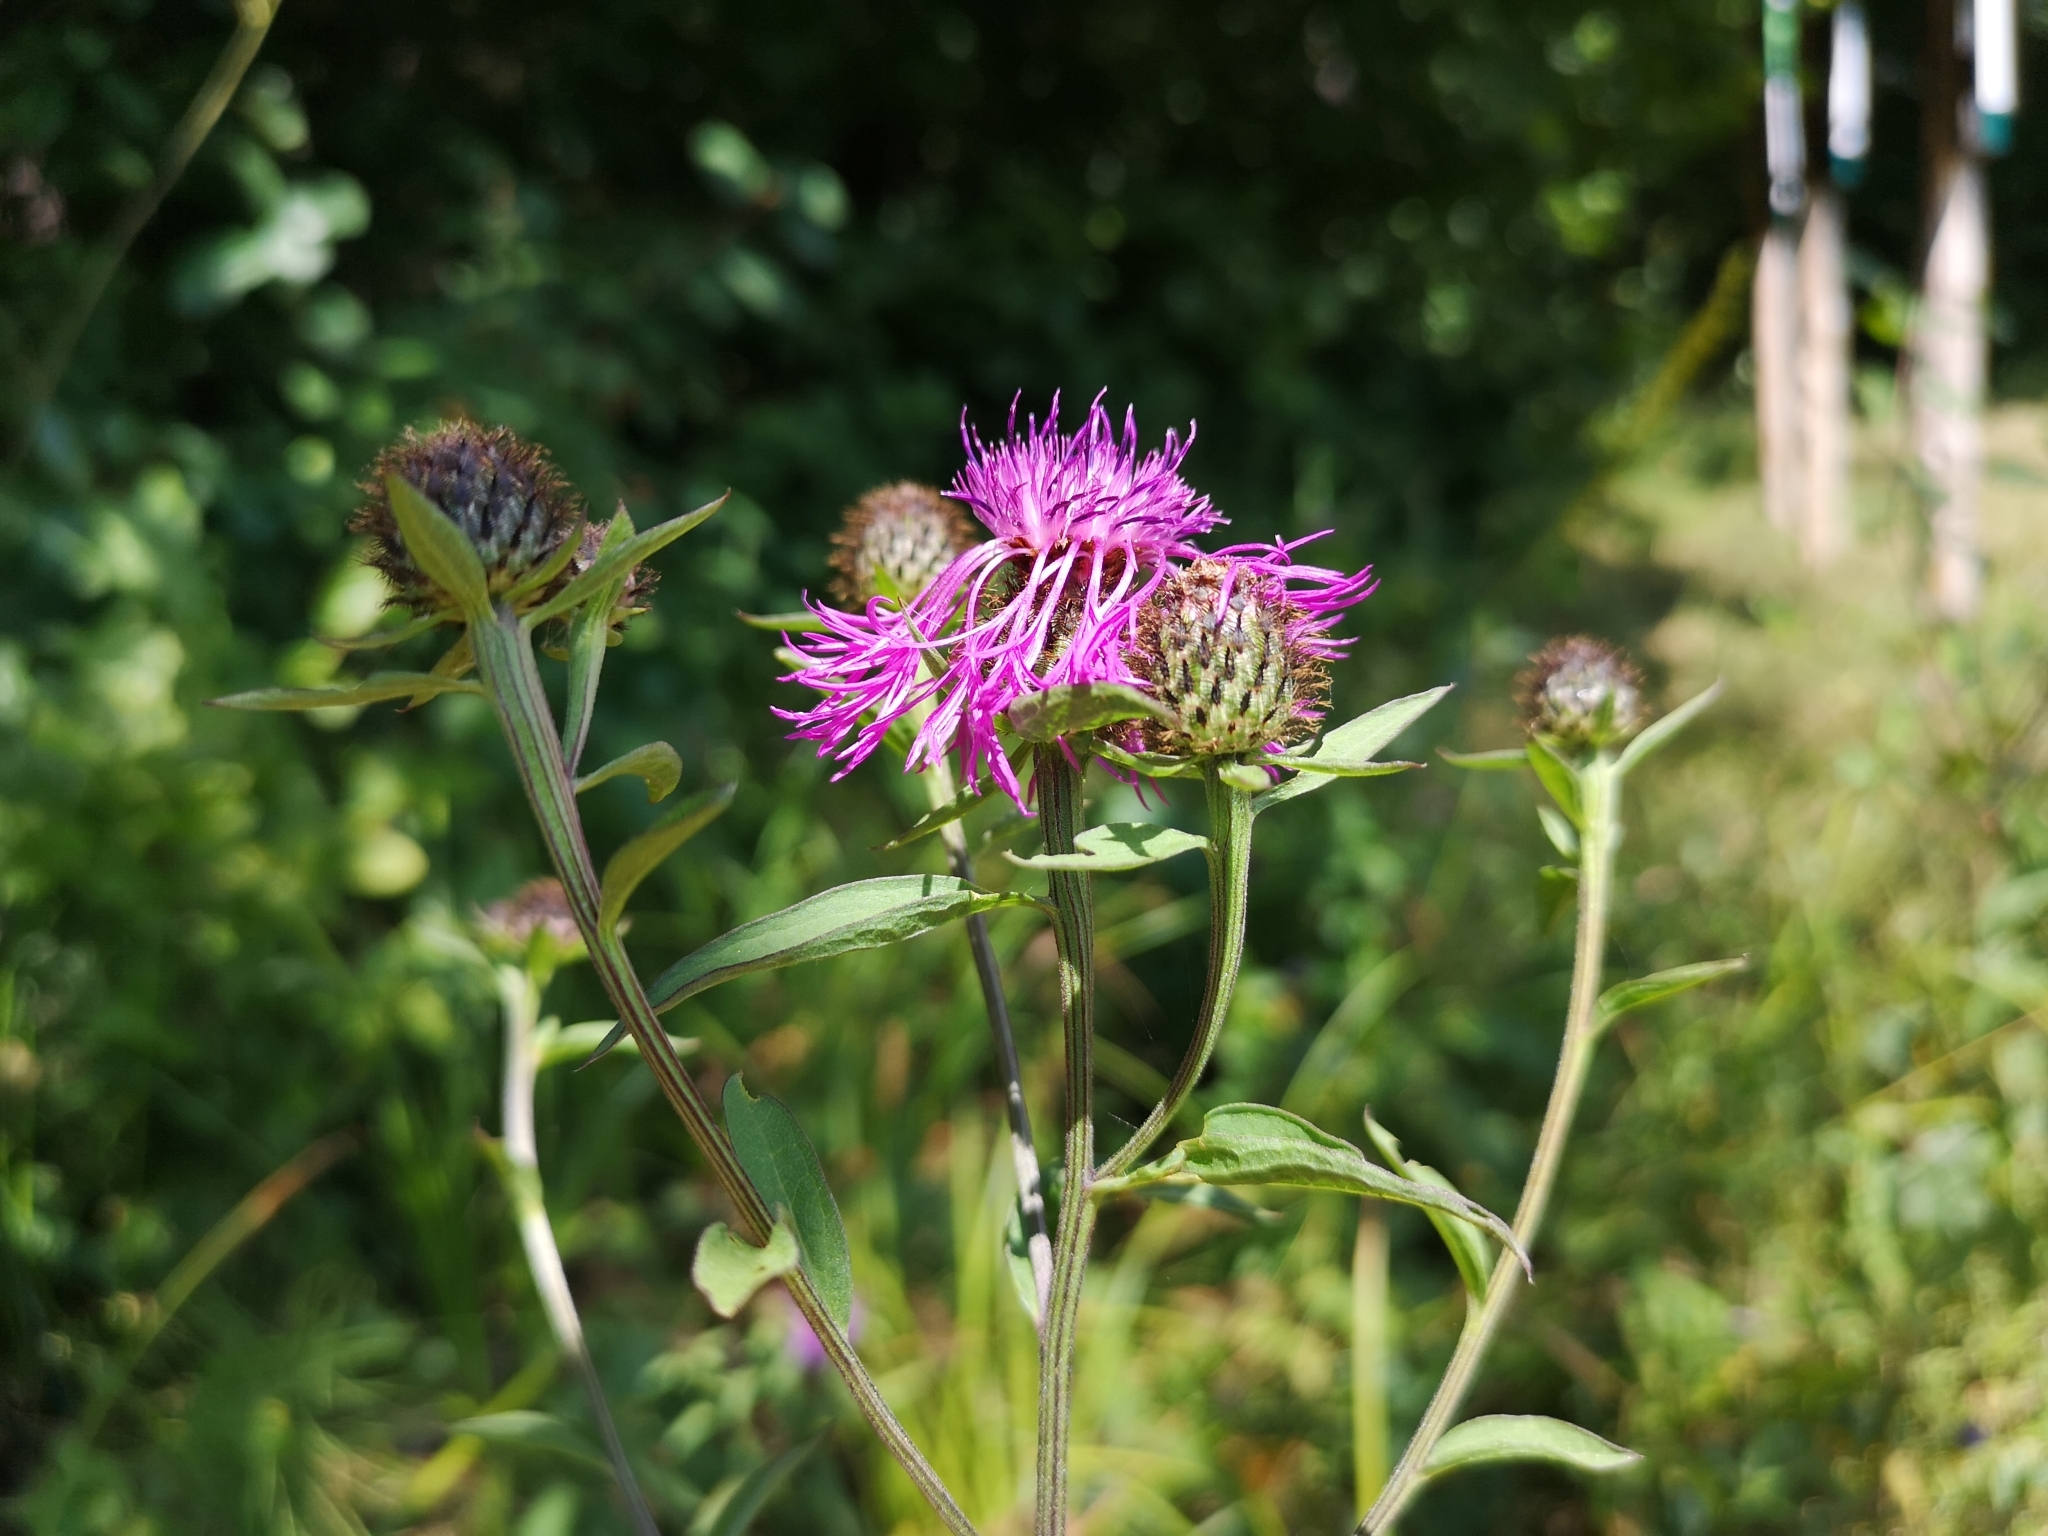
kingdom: Plantae
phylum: Tracheophyta
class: Magnoliopsida
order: Asterales
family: Asteraceae
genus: Centaurea
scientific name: Centaurea phrygia
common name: Wig knapweed
